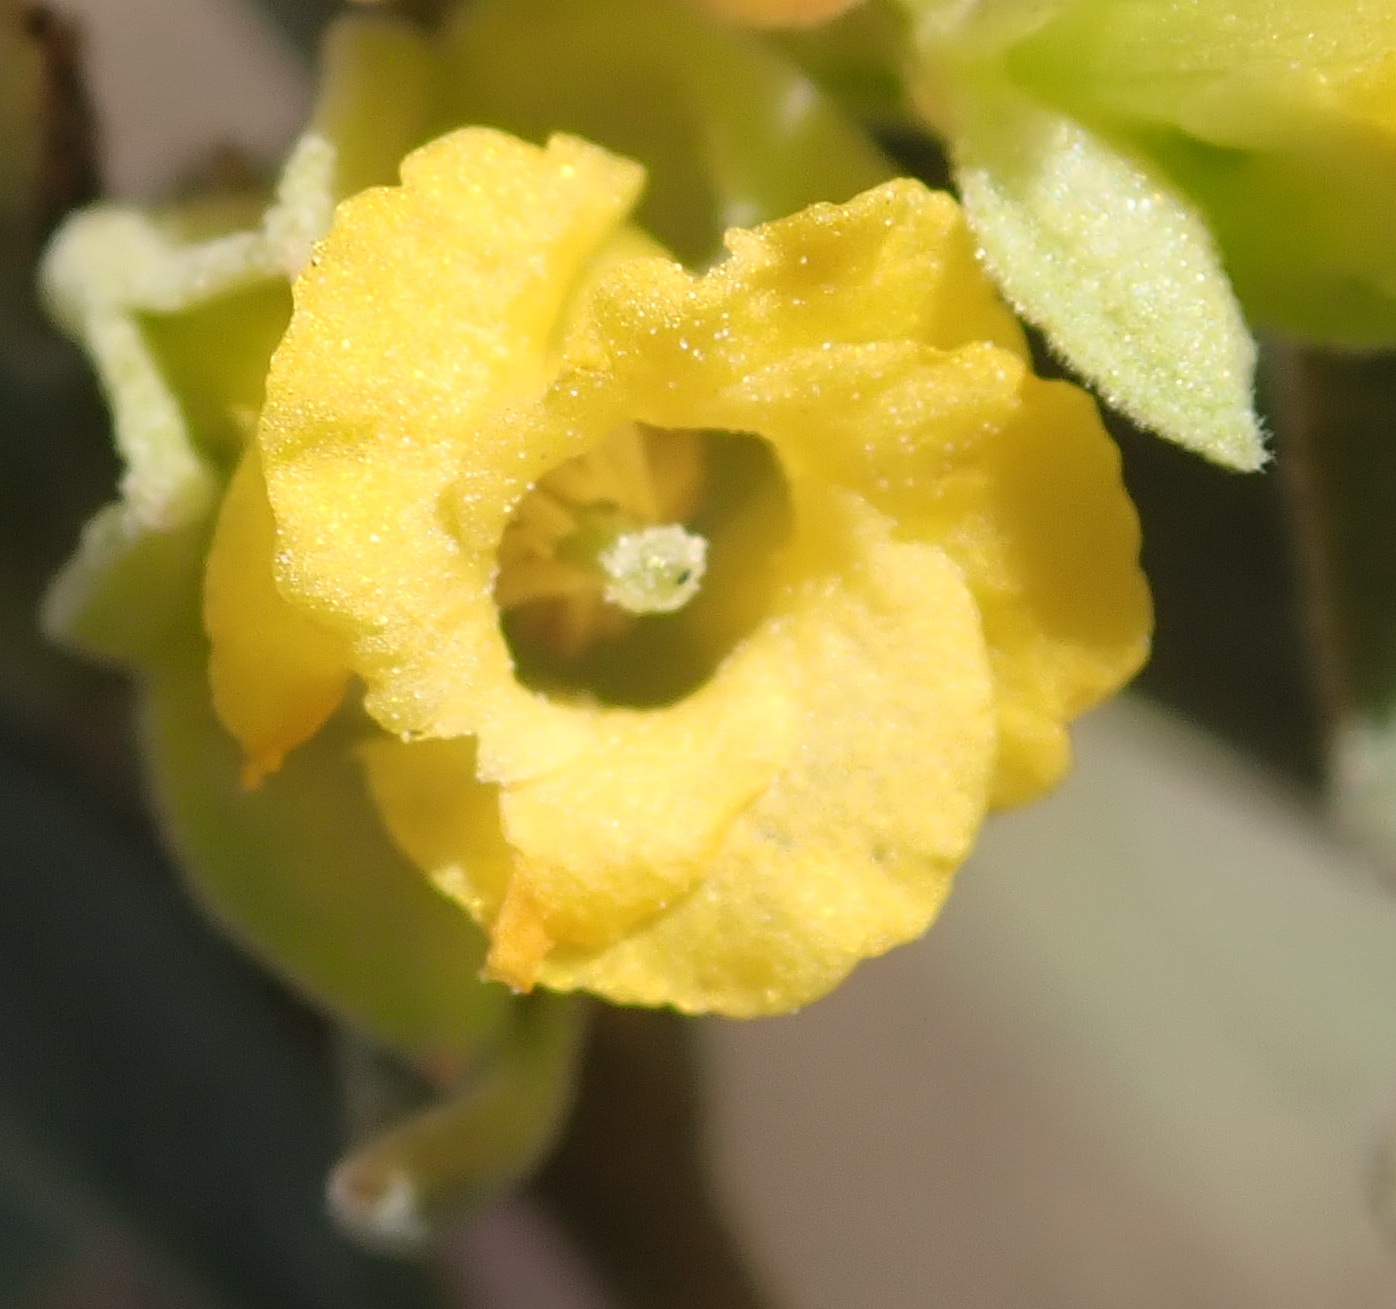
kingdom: Plantae
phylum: Tracheophyta
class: Magnoliopsida
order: Malvales
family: Malvaceae
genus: Hermannia
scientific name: Hermannia lavandulifolia
